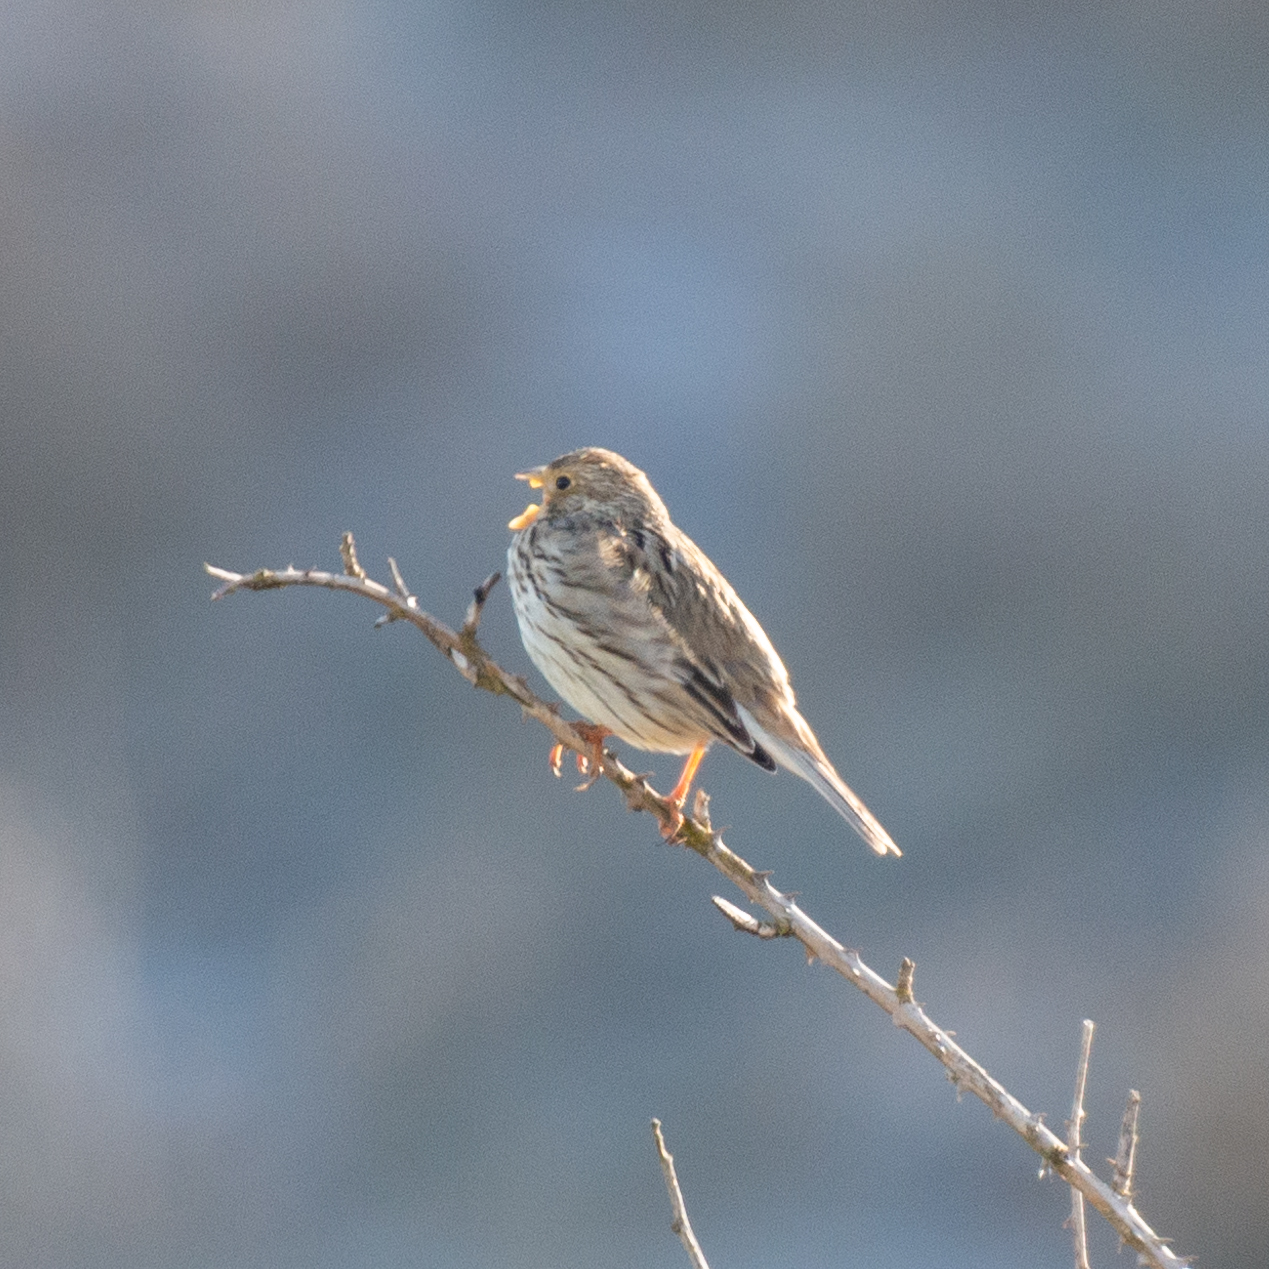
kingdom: Animalia
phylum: Chordata
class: Aves
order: Passeriformes
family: Emberizidae
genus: Emberiza
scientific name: Emberiza calandra
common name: Corn bunting
